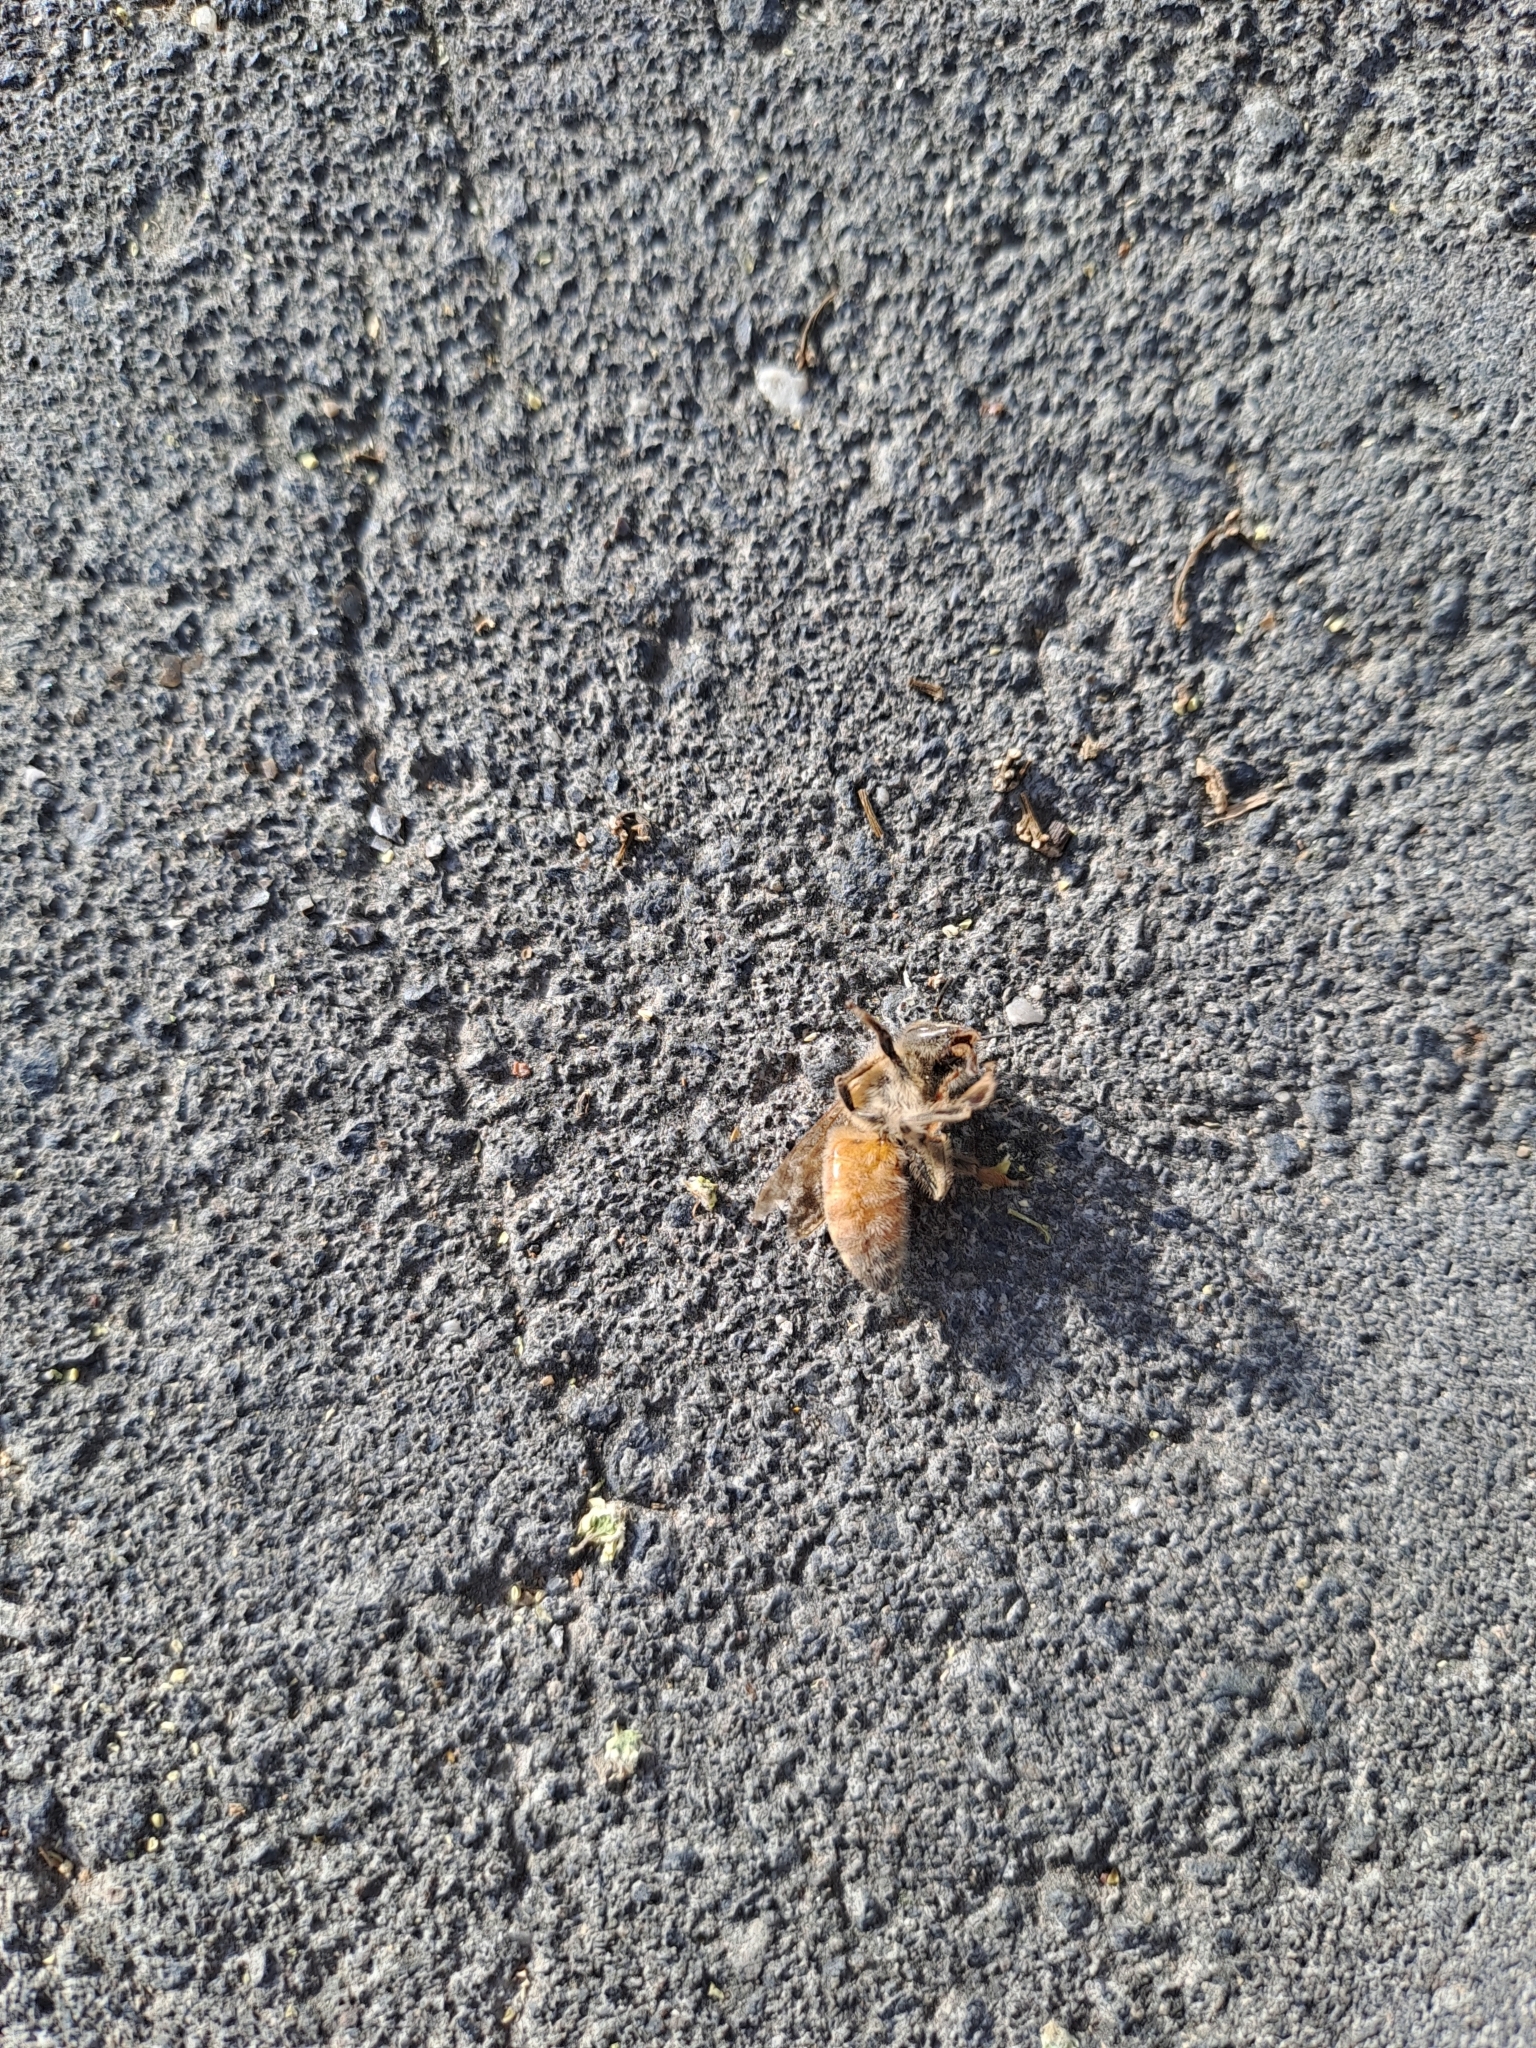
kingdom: Animalia
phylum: Arthropoda
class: Insecta
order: Hymenoptera
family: Apidae
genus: Apis
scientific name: Apis mellifera
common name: Honey bee
